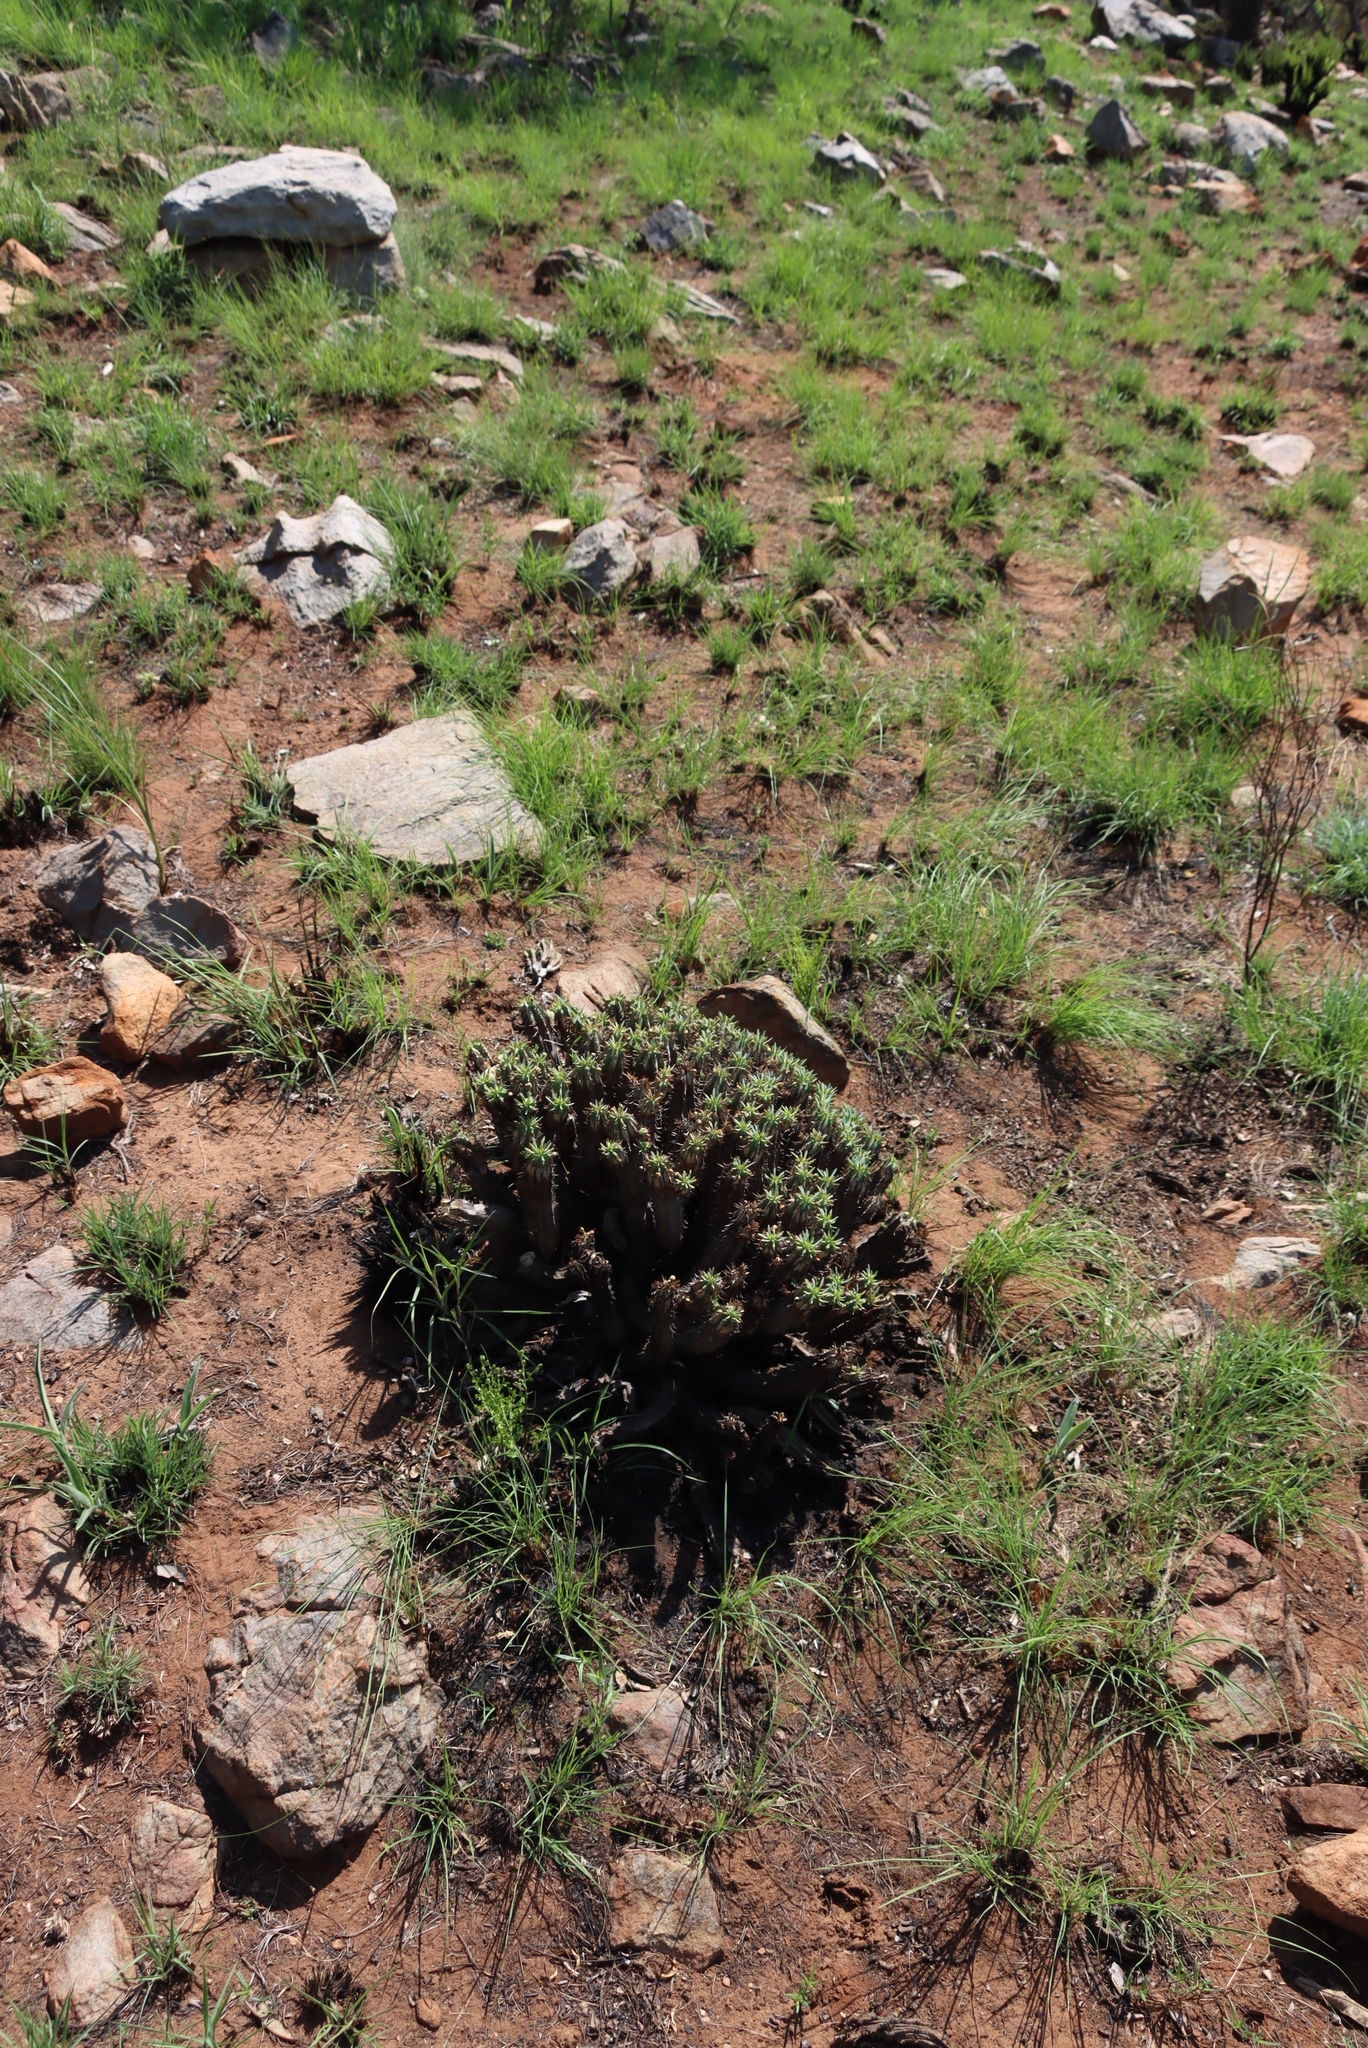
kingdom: Plantae
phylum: Tracheophyta
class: Magnoliopsida
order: Malpighiales
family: Euphorbiaceae
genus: Euphorbia
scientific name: Euphorbia pulvinata
